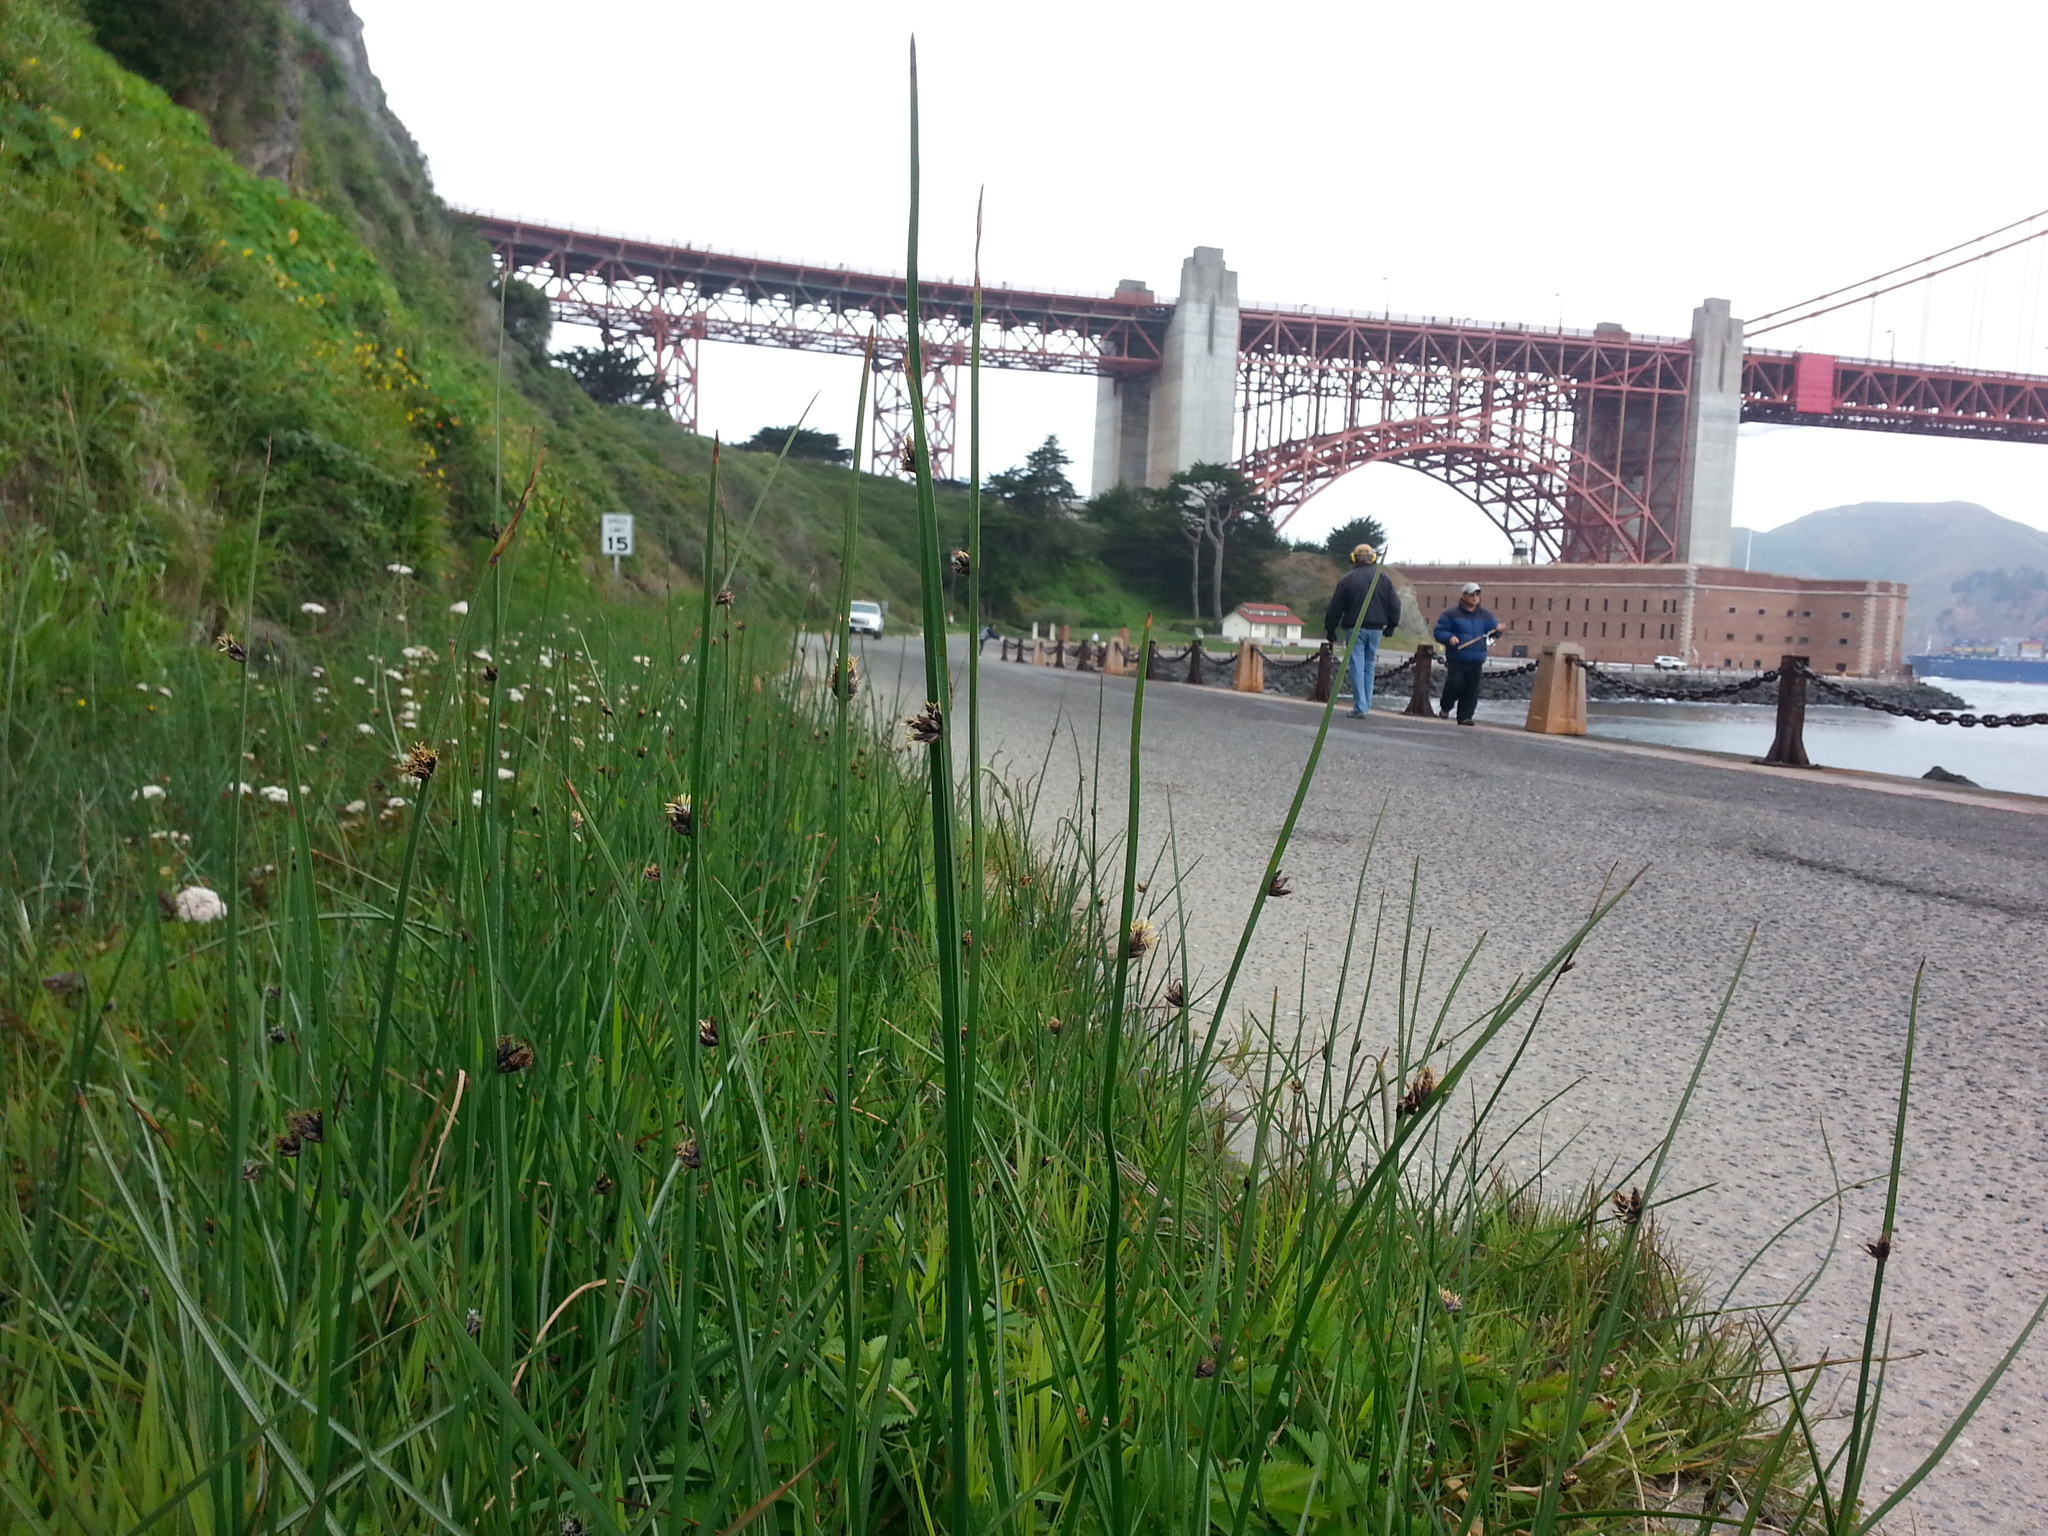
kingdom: Plantae
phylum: Tracheophyta
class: Liliopsida
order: Poales
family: Cyperaceae
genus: Schoenoplectus
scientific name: Schoenoplectus pungens
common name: Sharp club-rush
